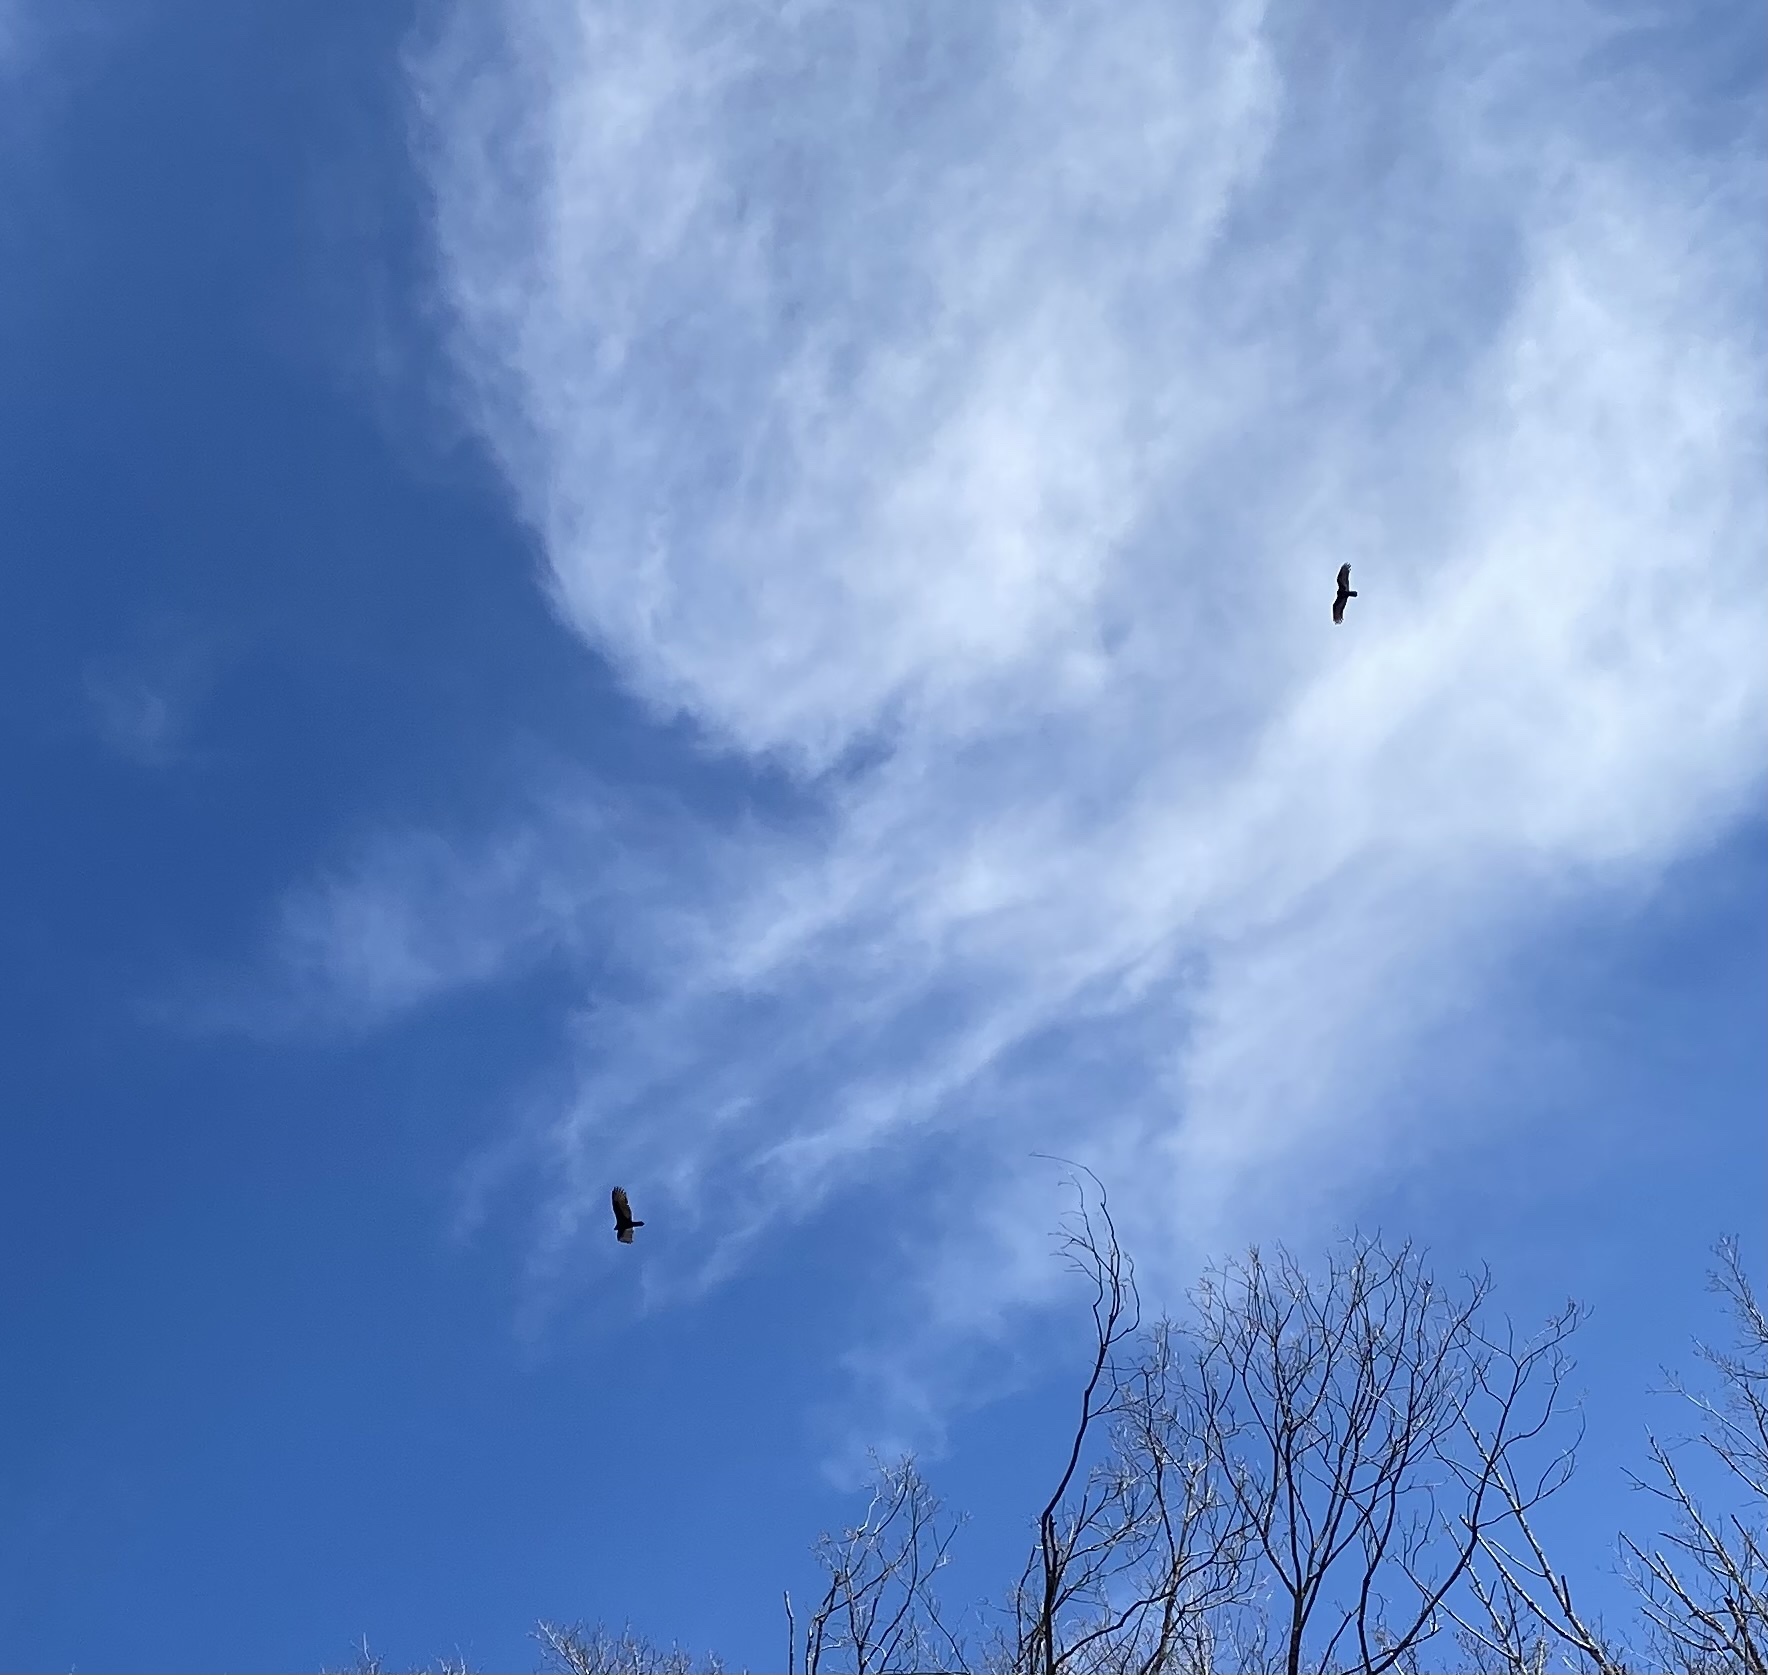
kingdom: Animalia
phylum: Chordata
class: Aves
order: Accipitriformes
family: Cathartidae
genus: Cathartes
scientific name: Cathartes aura
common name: Turkey vulture
